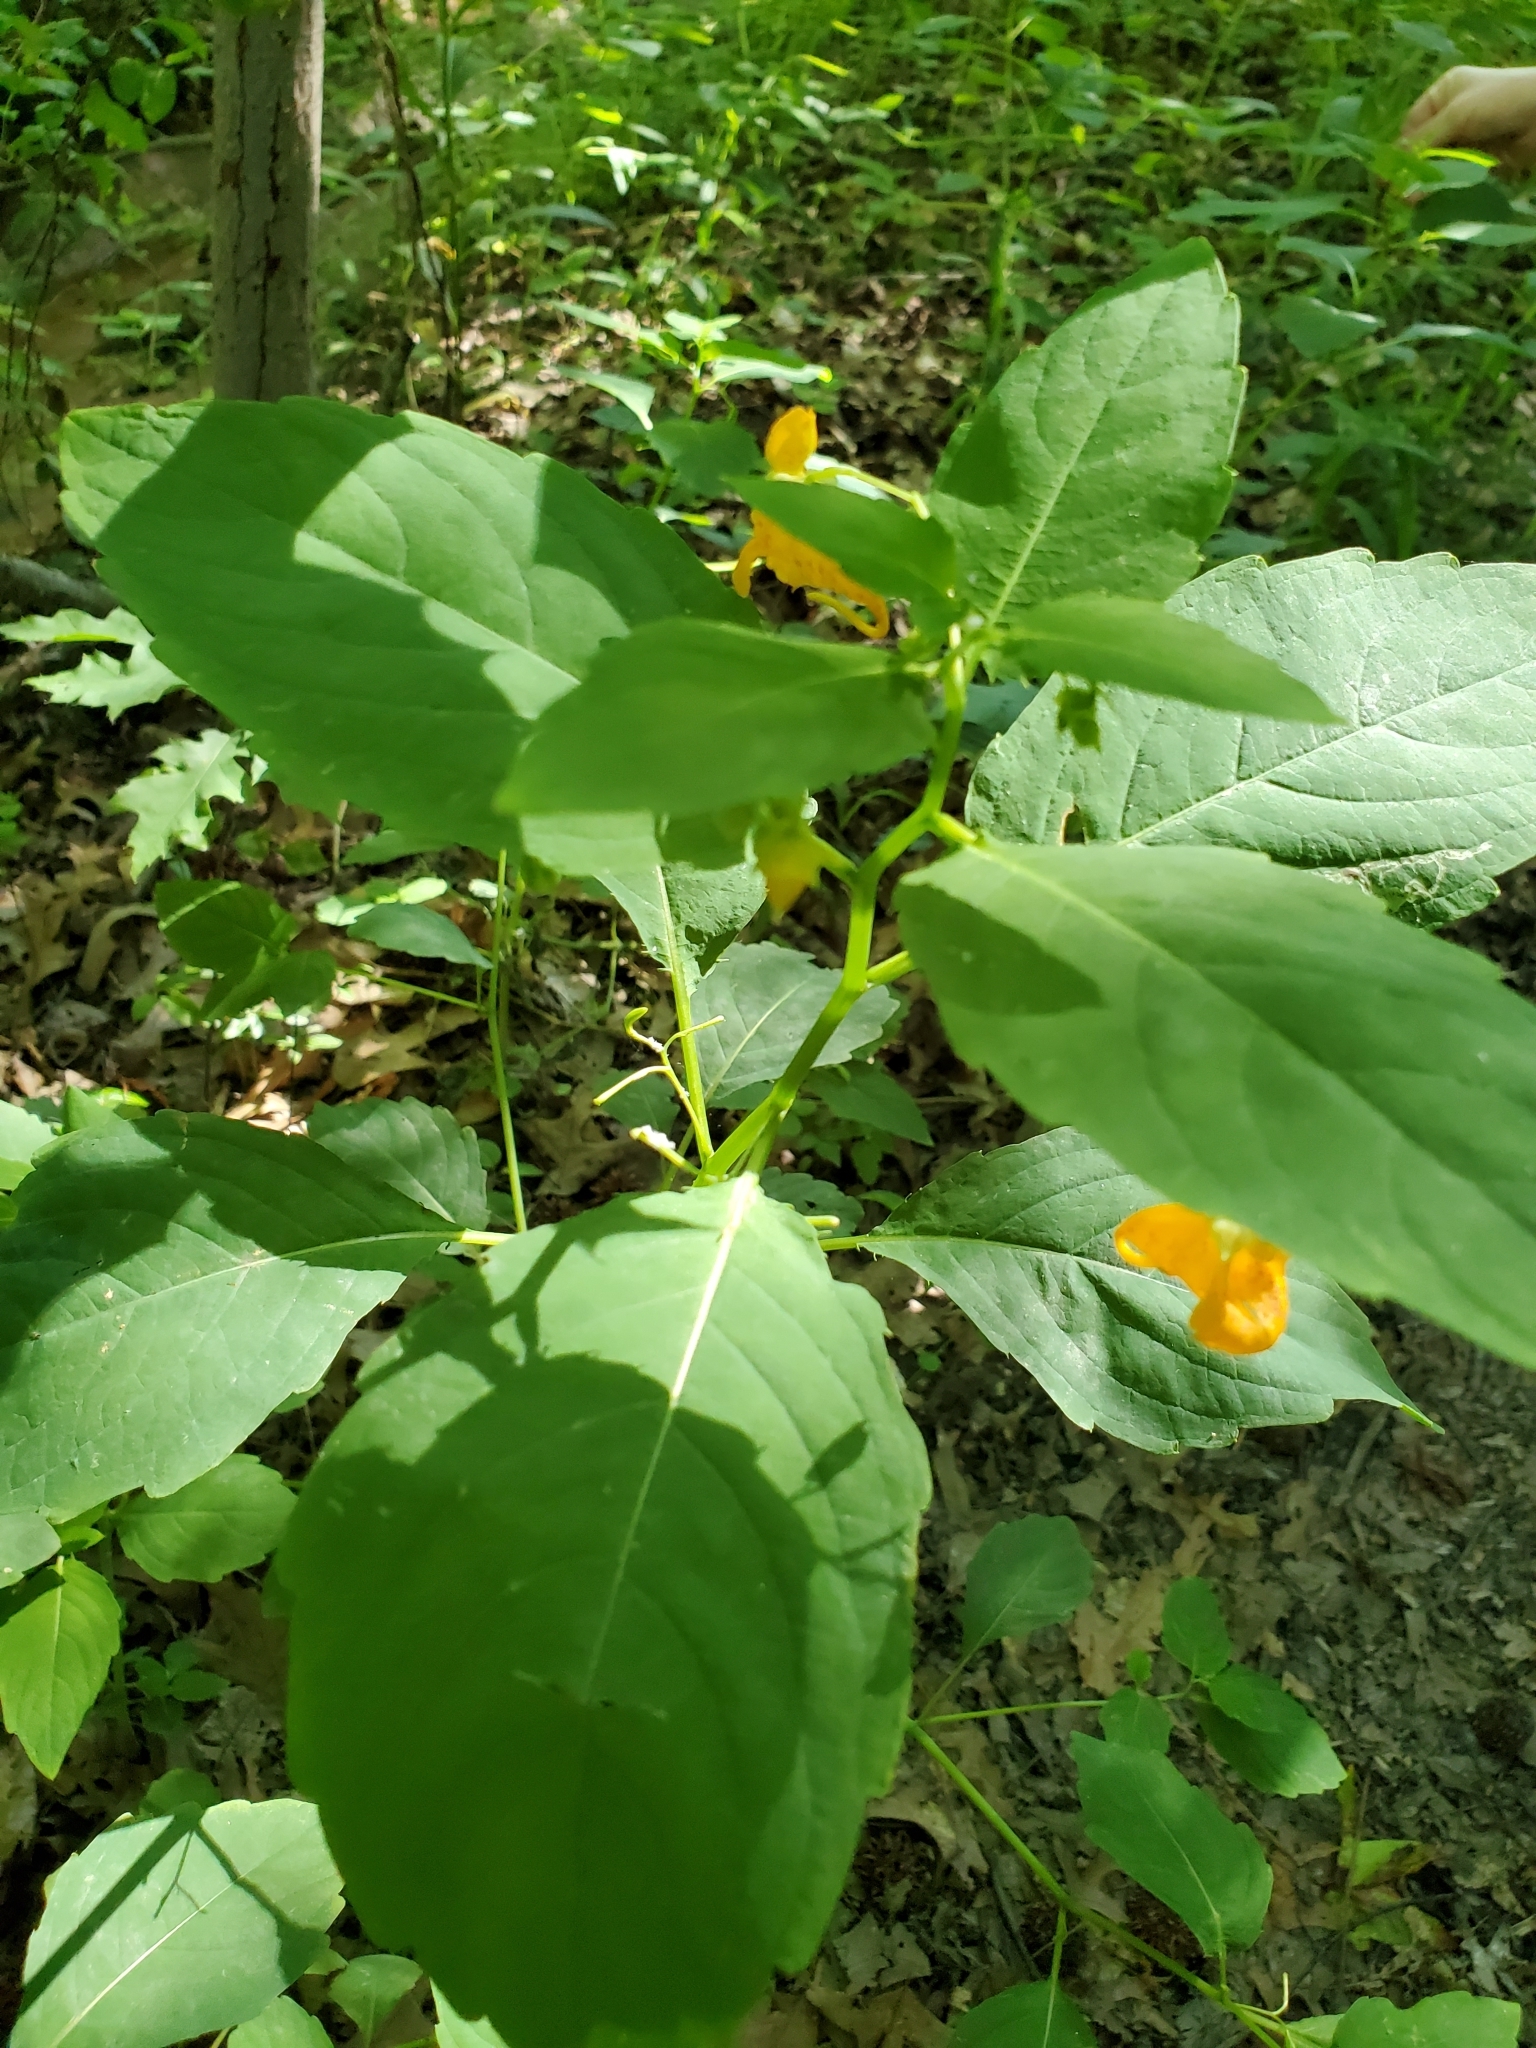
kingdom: Plantae
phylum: Tracheophyta
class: Magnoliopsida
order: Ericales
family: Balsaminaceae
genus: Impatiens
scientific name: Impatiens capensis
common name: Orange balsam
